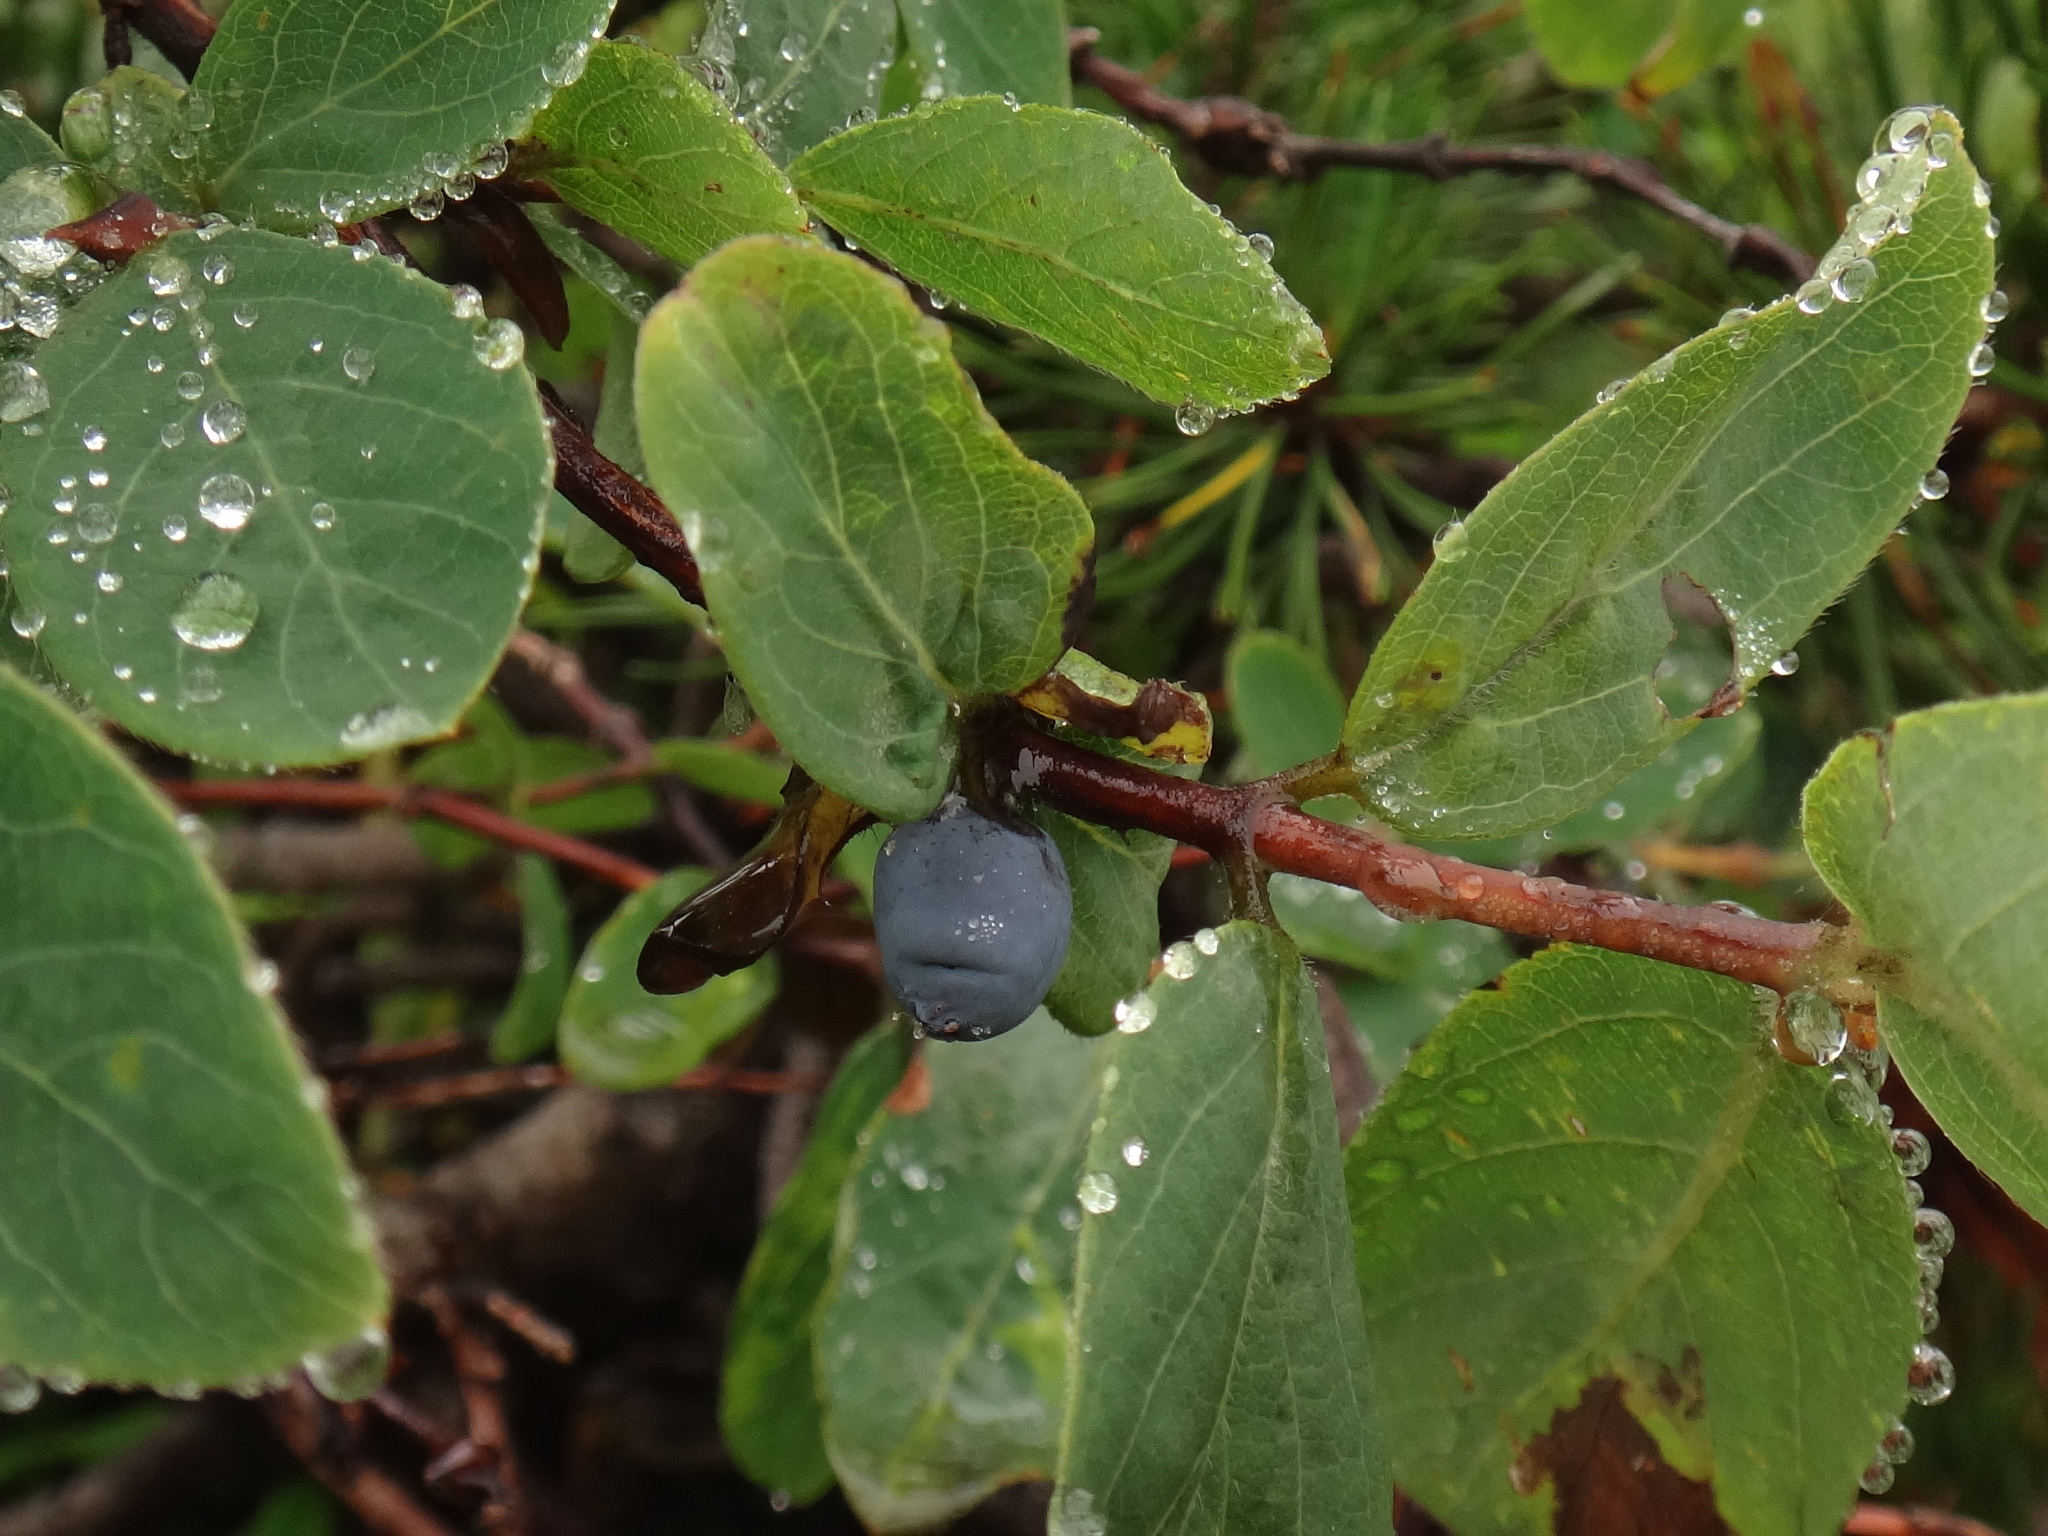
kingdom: Plantae
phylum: Tracheophyta
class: Magnoliopsida
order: Dipsacales
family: Caprifoliaceae
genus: Lonicera
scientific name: Lonicera caerulea
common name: Blue honeysuckle
